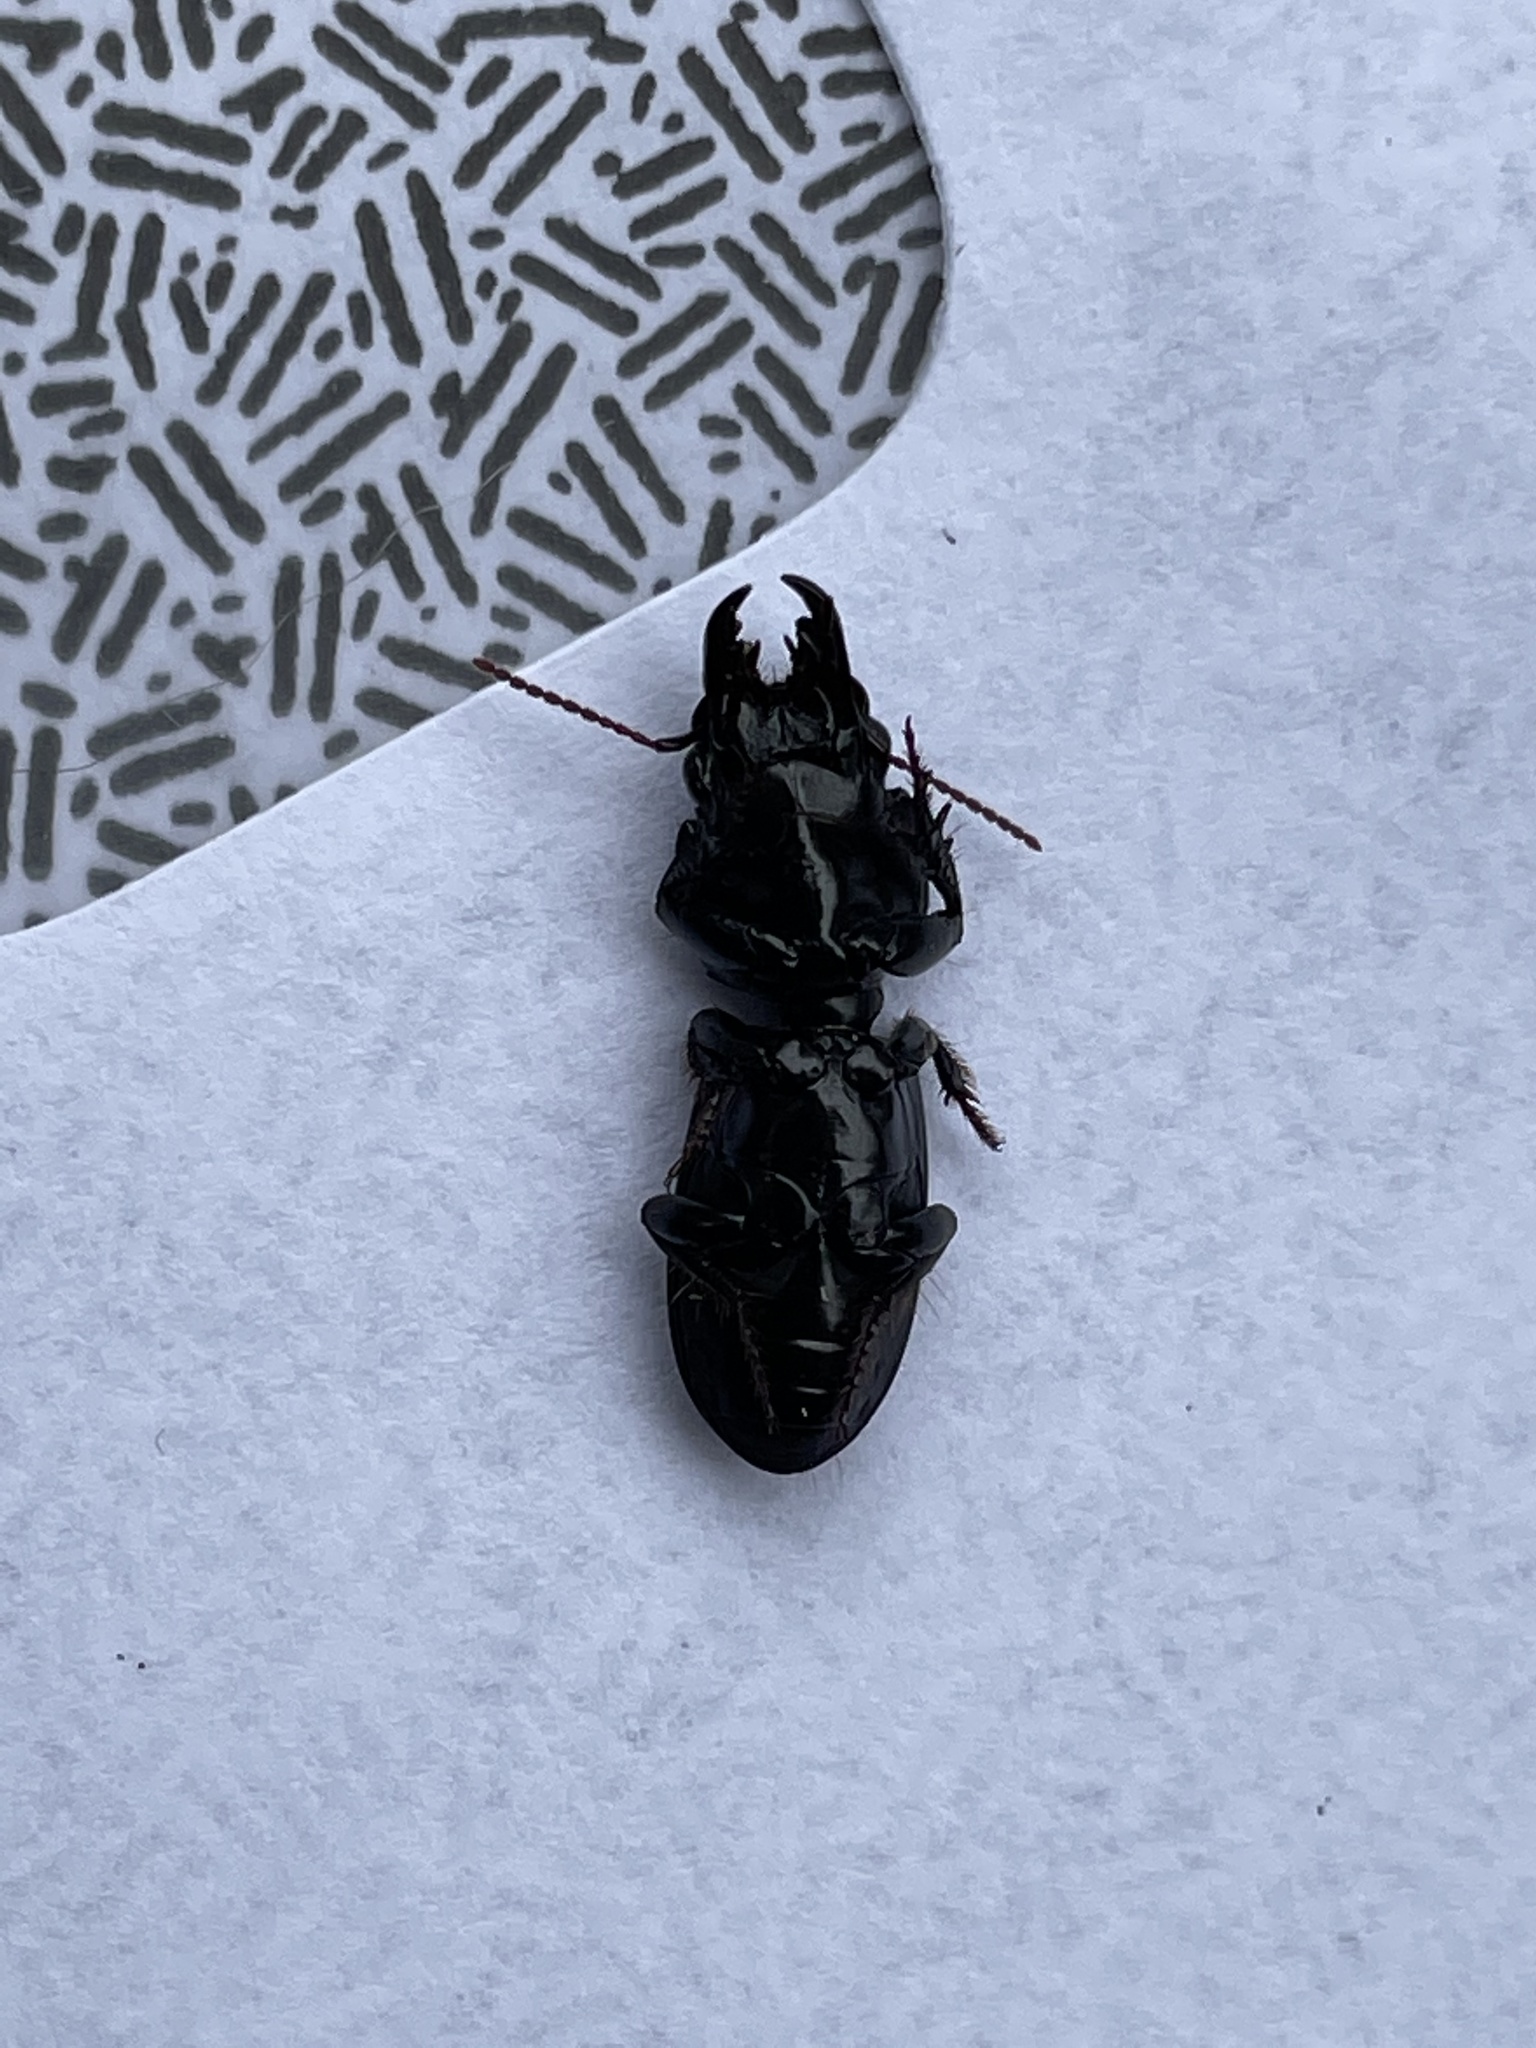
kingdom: Animalia
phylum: Arthropoda
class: Insecta
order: Coleoptera
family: Carabidae
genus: Scarites
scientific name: Scarites subterraneus
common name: Big-headed ground beetle
